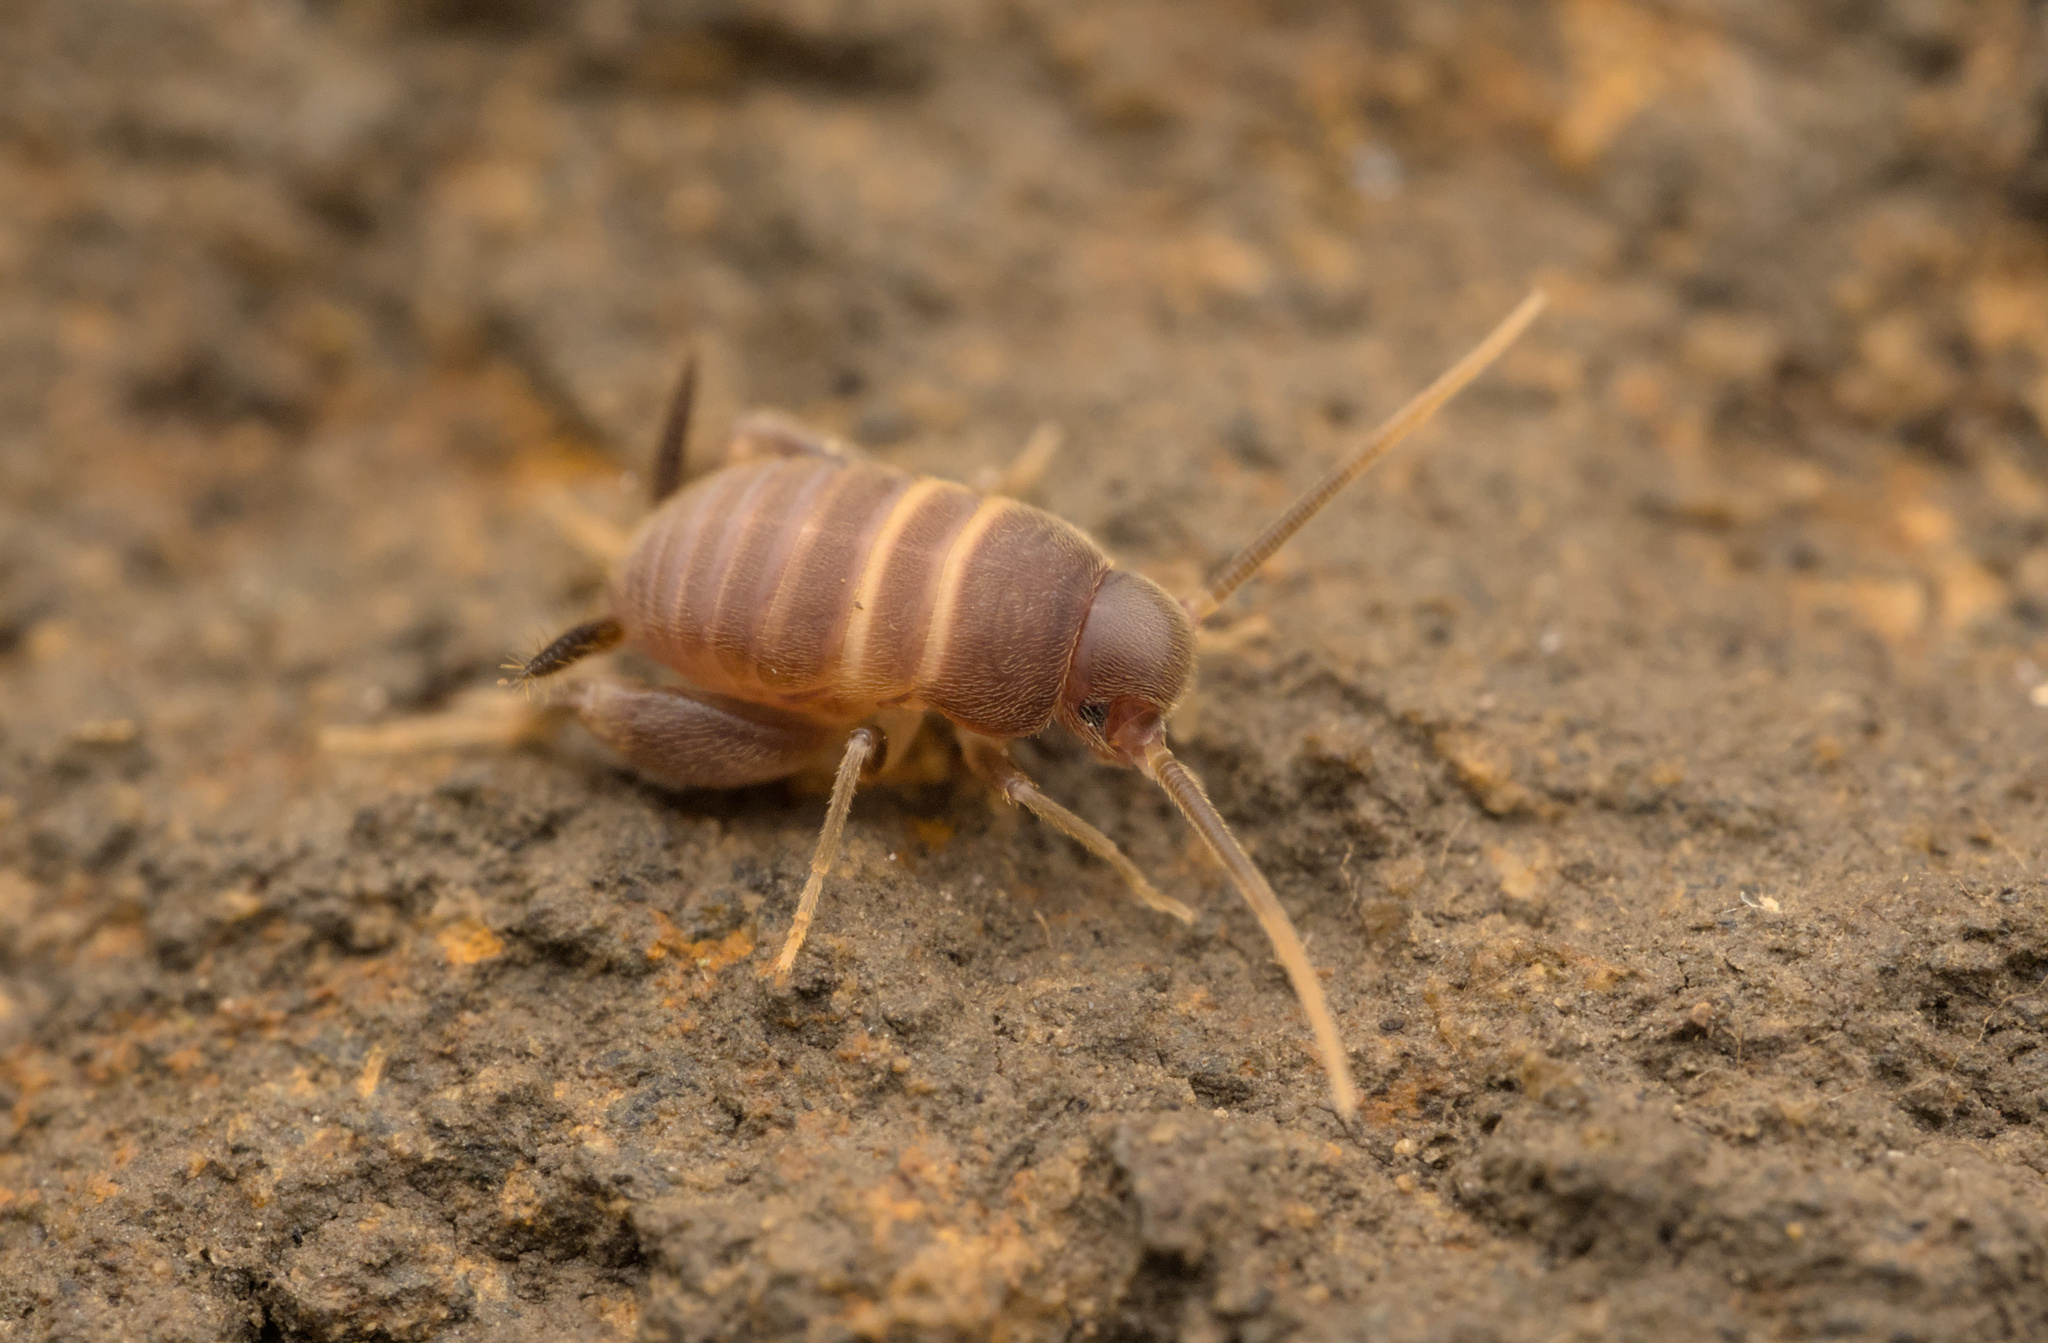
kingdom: Animalia
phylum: Arthropoda
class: Insecta
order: Orthoptera
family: Myrmecophilidae
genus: Myrmecophilus
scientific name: Myrmecophilus acervorum
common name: Ants-nest cricket
